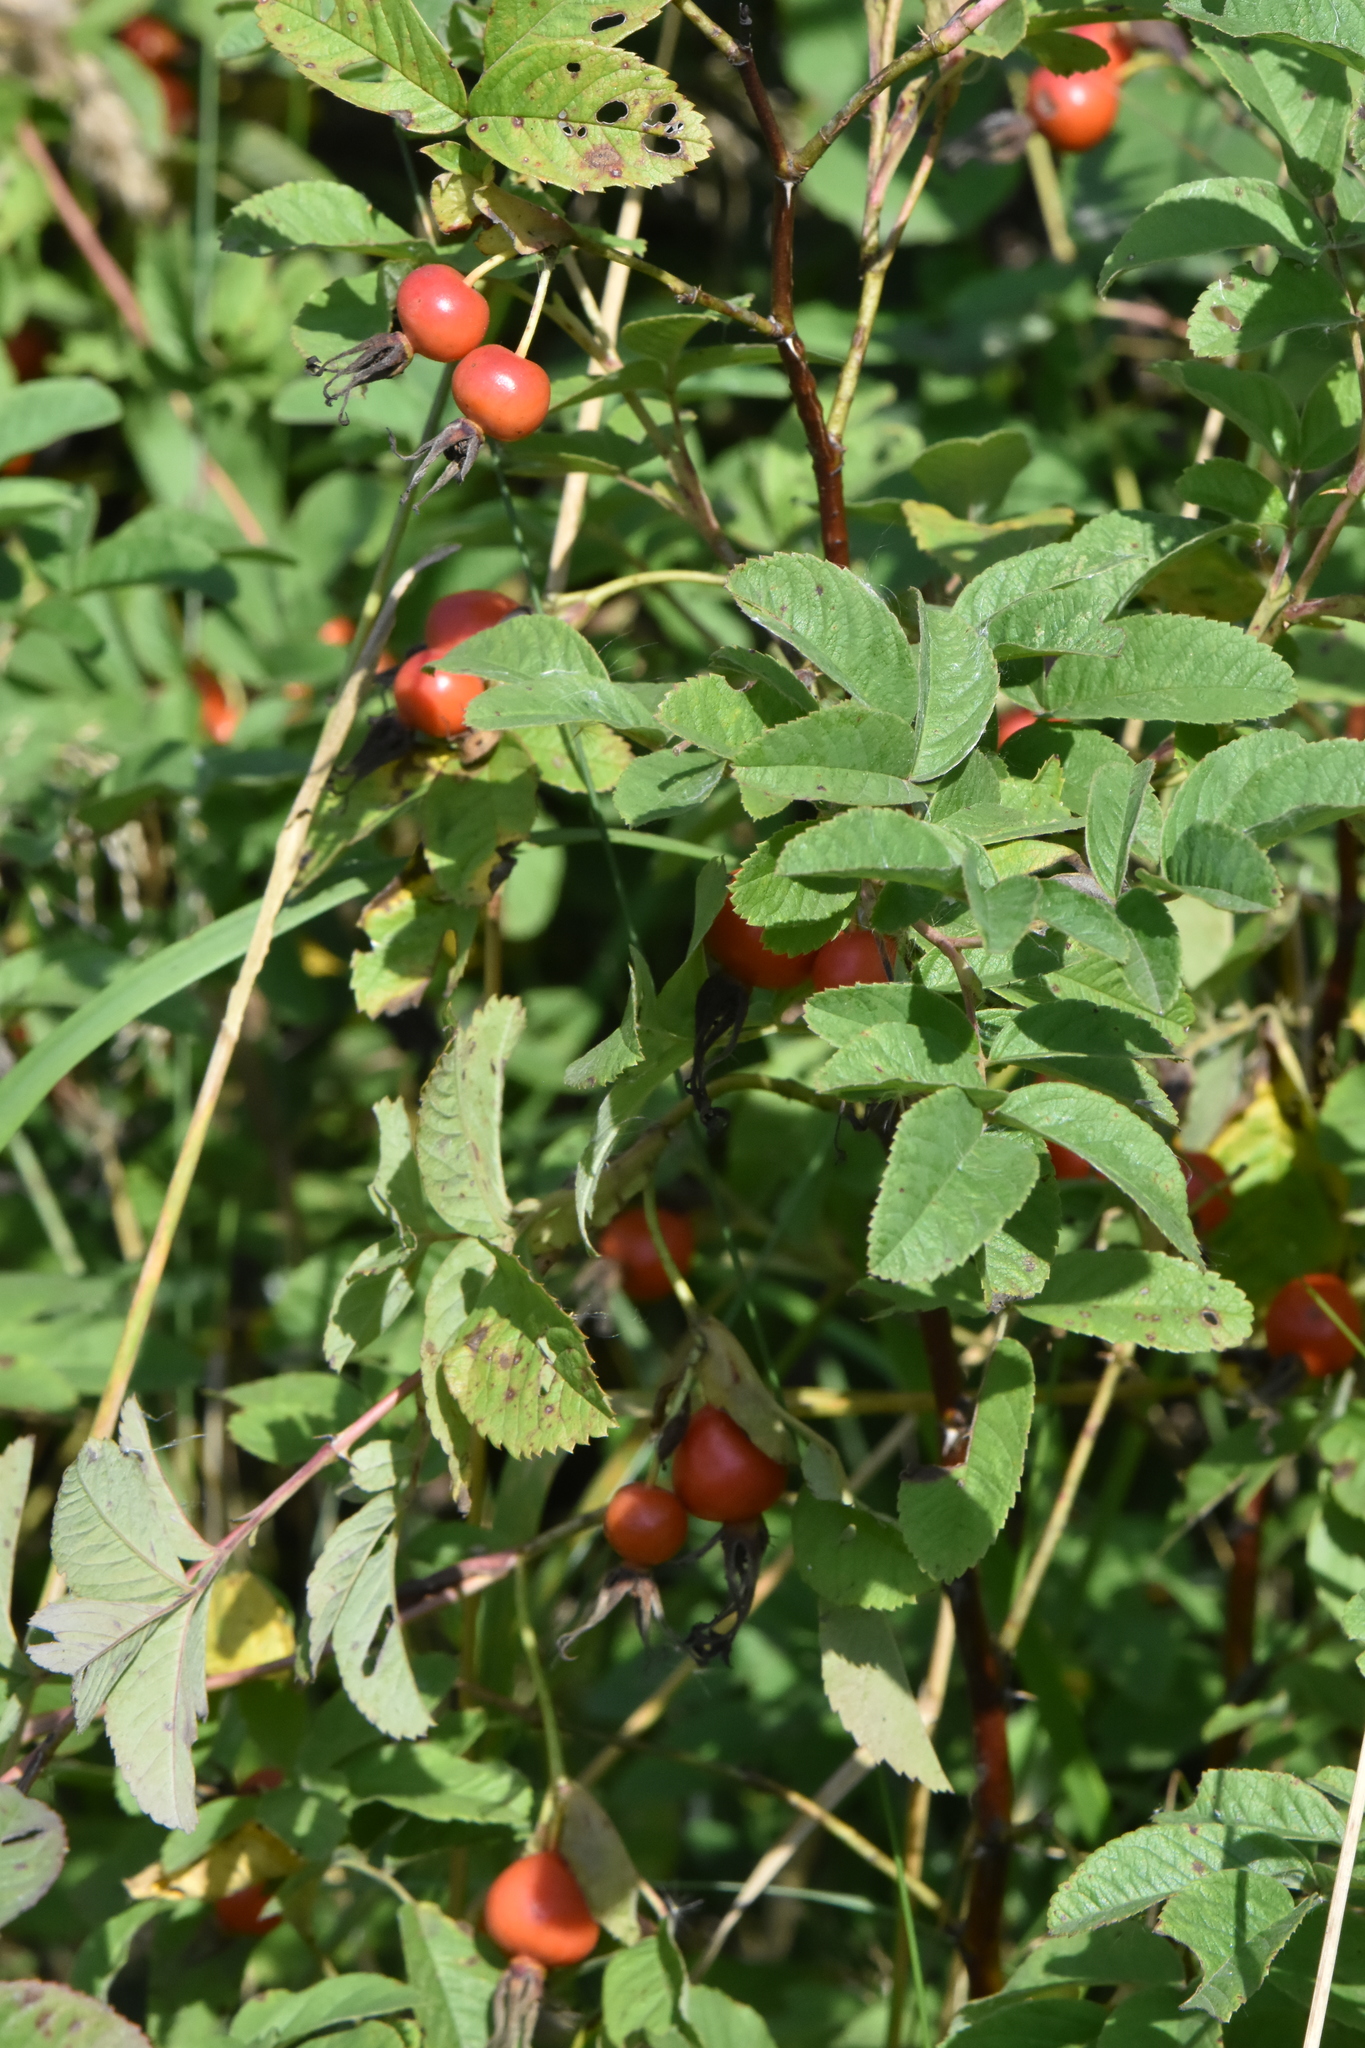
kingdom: Plantae
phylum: Tracheophyta
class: Magnoliopsida
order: Rosales
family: Rosaceae
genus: Rosa
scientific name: Rosa majalis
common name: Cinnamon rose
